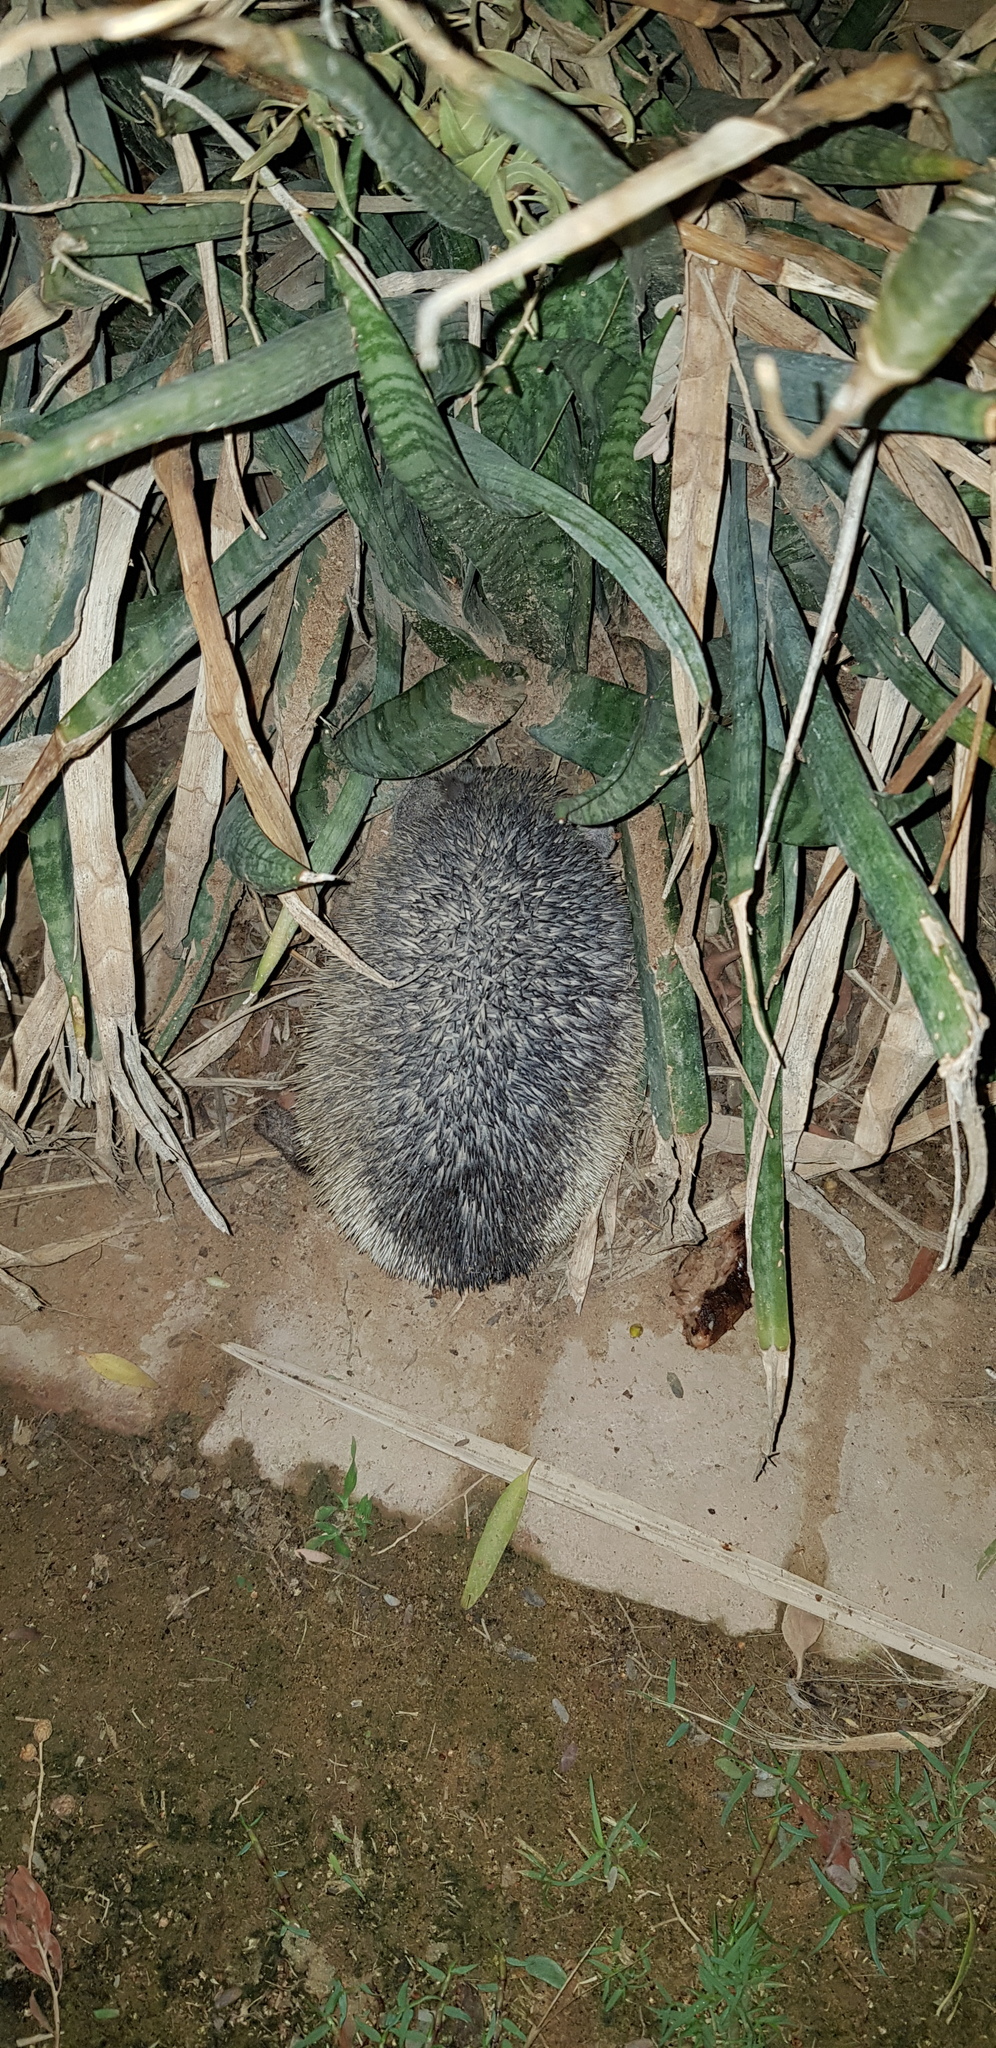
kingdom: Animalia
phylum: Chordata
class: Mammalia
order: Erinaceomorpha
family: Erinaceidae
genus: Paraechinus
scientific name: Paraechinus aethiopicus
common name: Desert hedgehog
